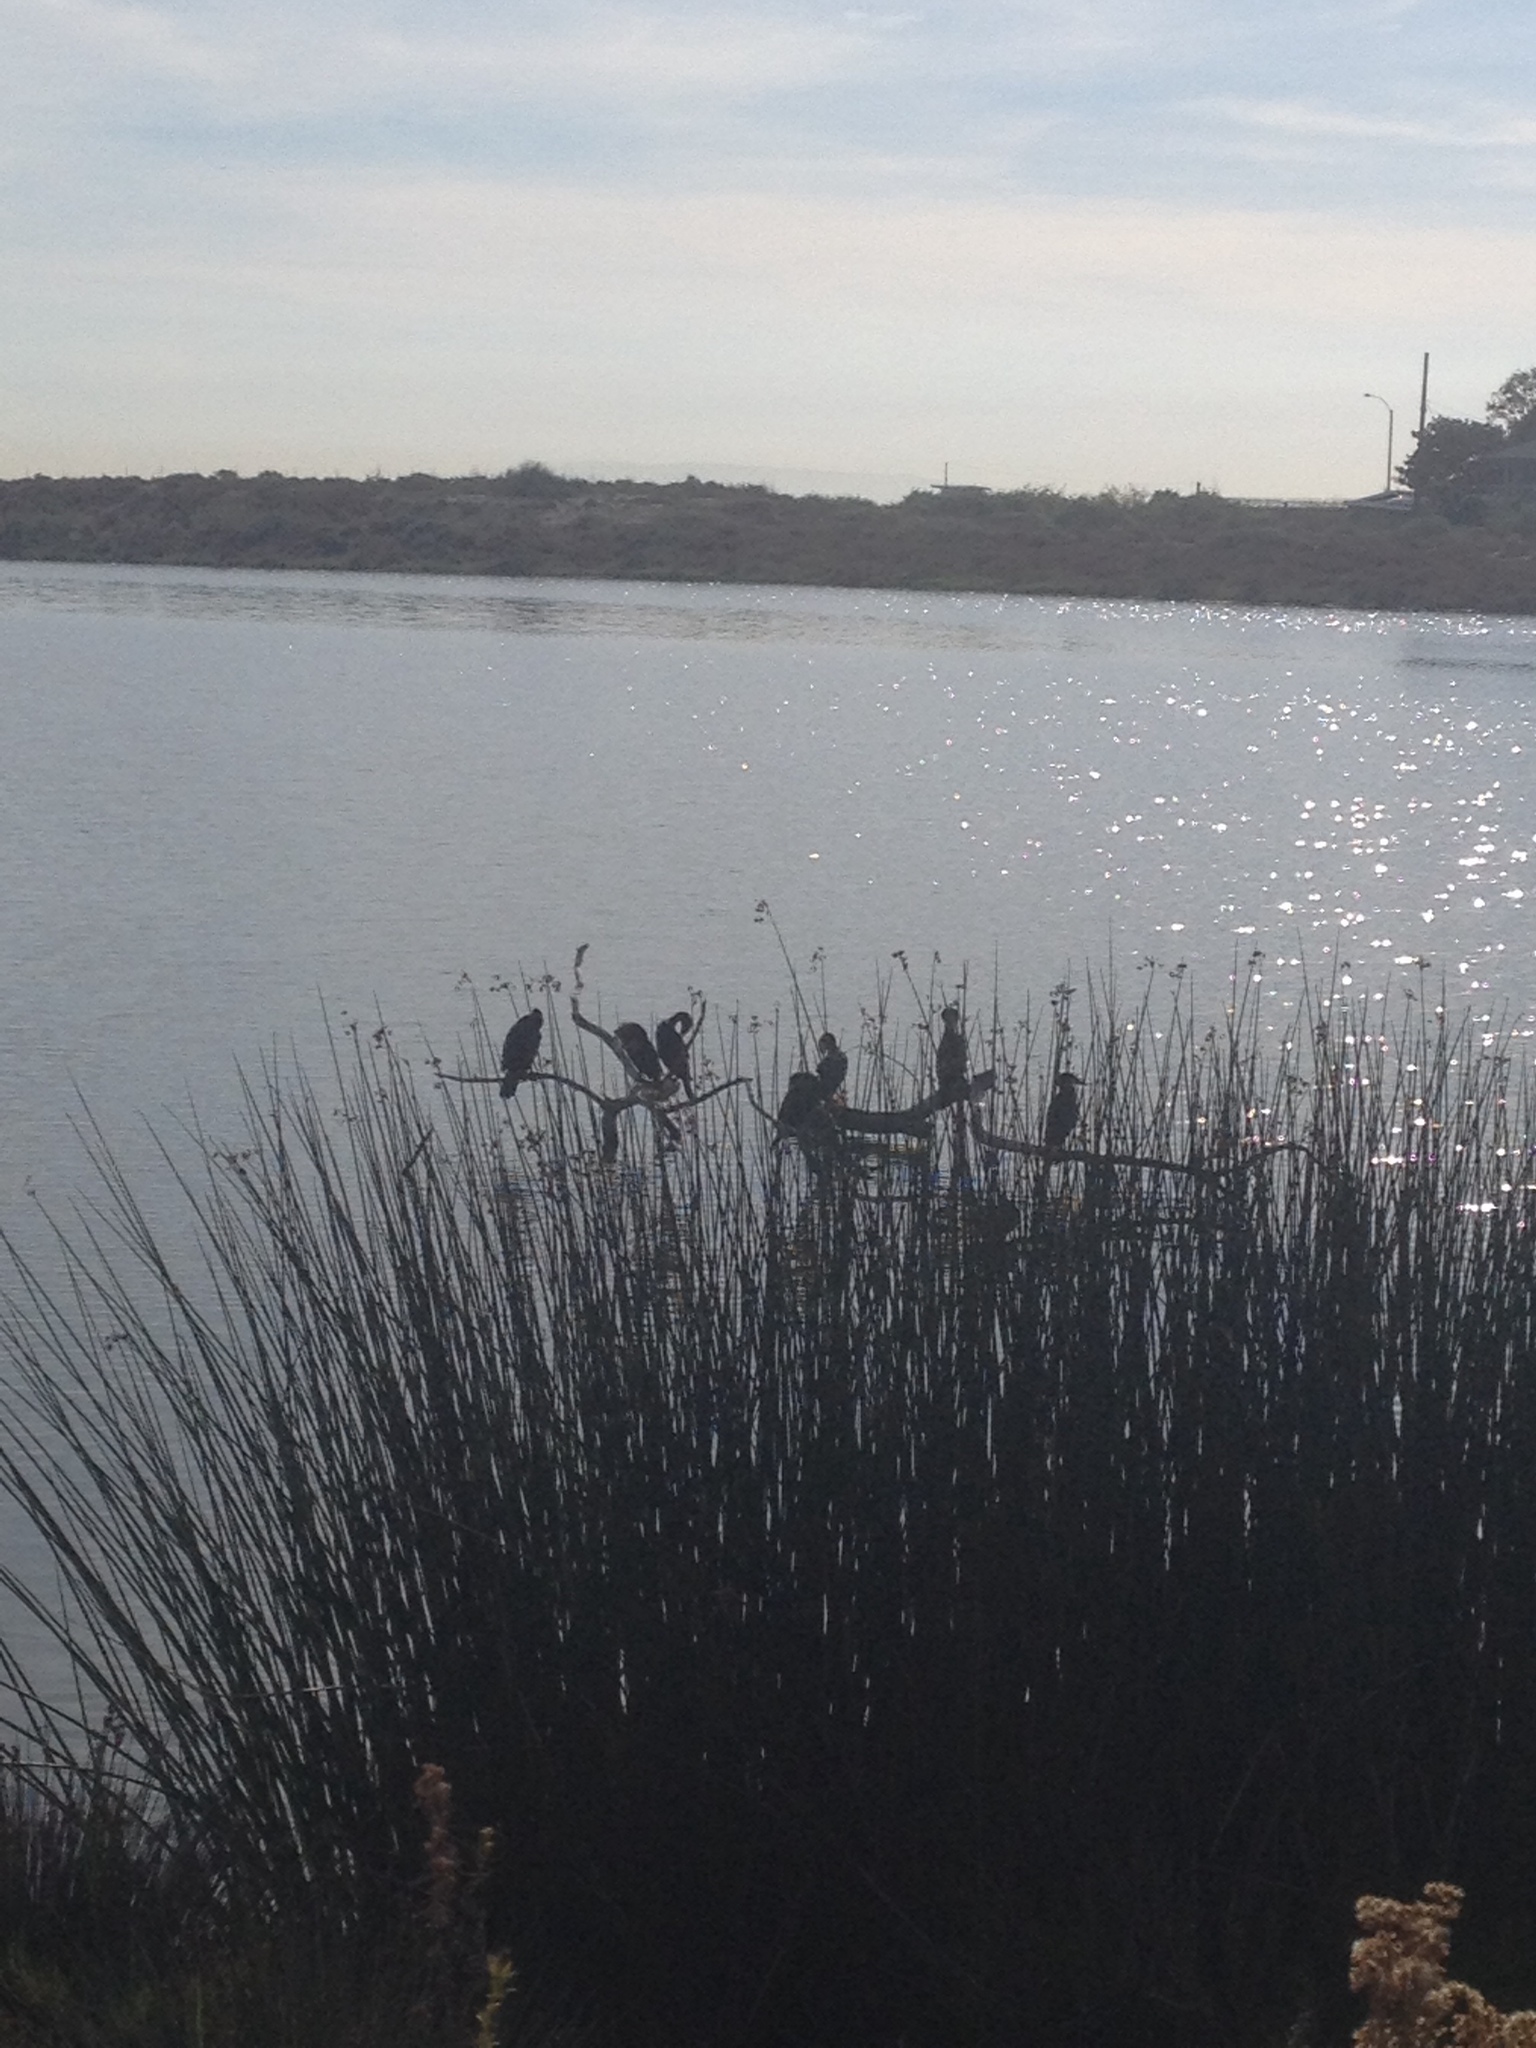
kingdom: Animalia
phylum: Chordata
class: Aves
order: Suliformes
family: Phalacrocoracidae
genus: Phalacrocorax
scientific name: Phalacrocorax auritus
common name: Double-crested cormorant
